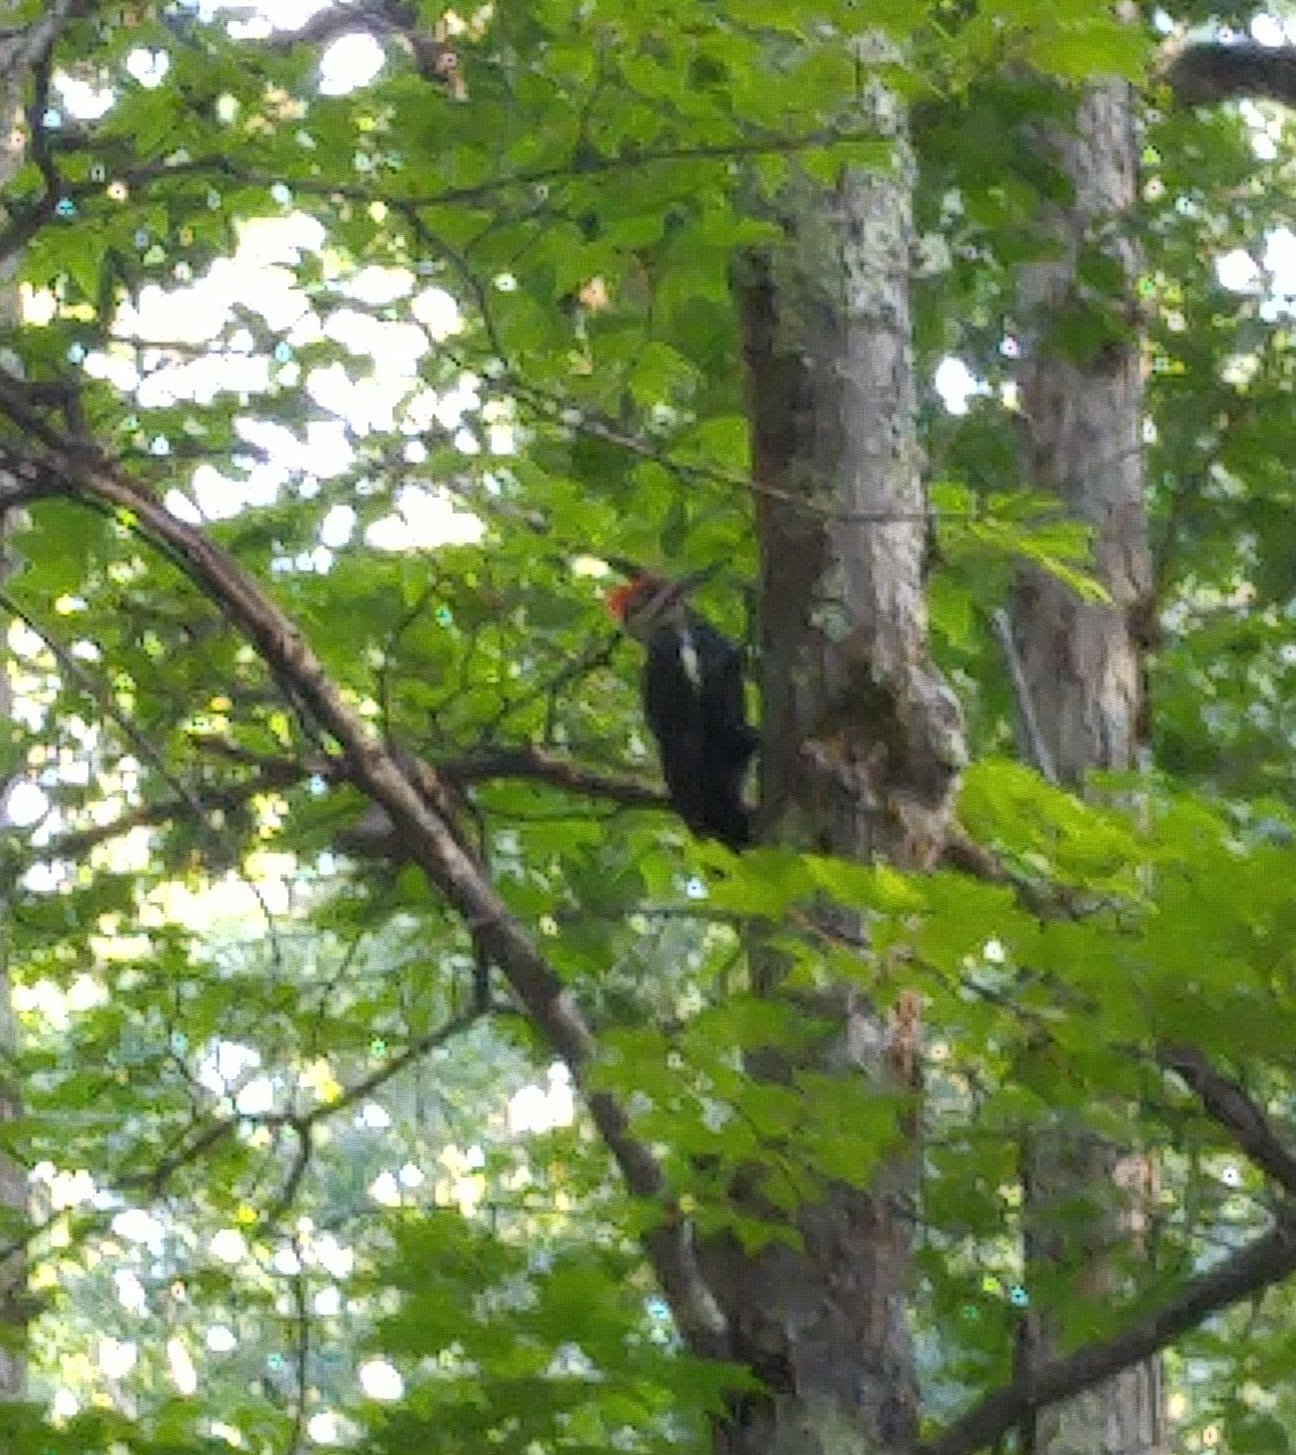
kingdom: Animalia
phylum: Chordata
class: Aves
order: Piciformes
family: Picidae
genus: Dryocopus
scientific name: Dryocopus pileatus
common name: Pileated woodpecker
